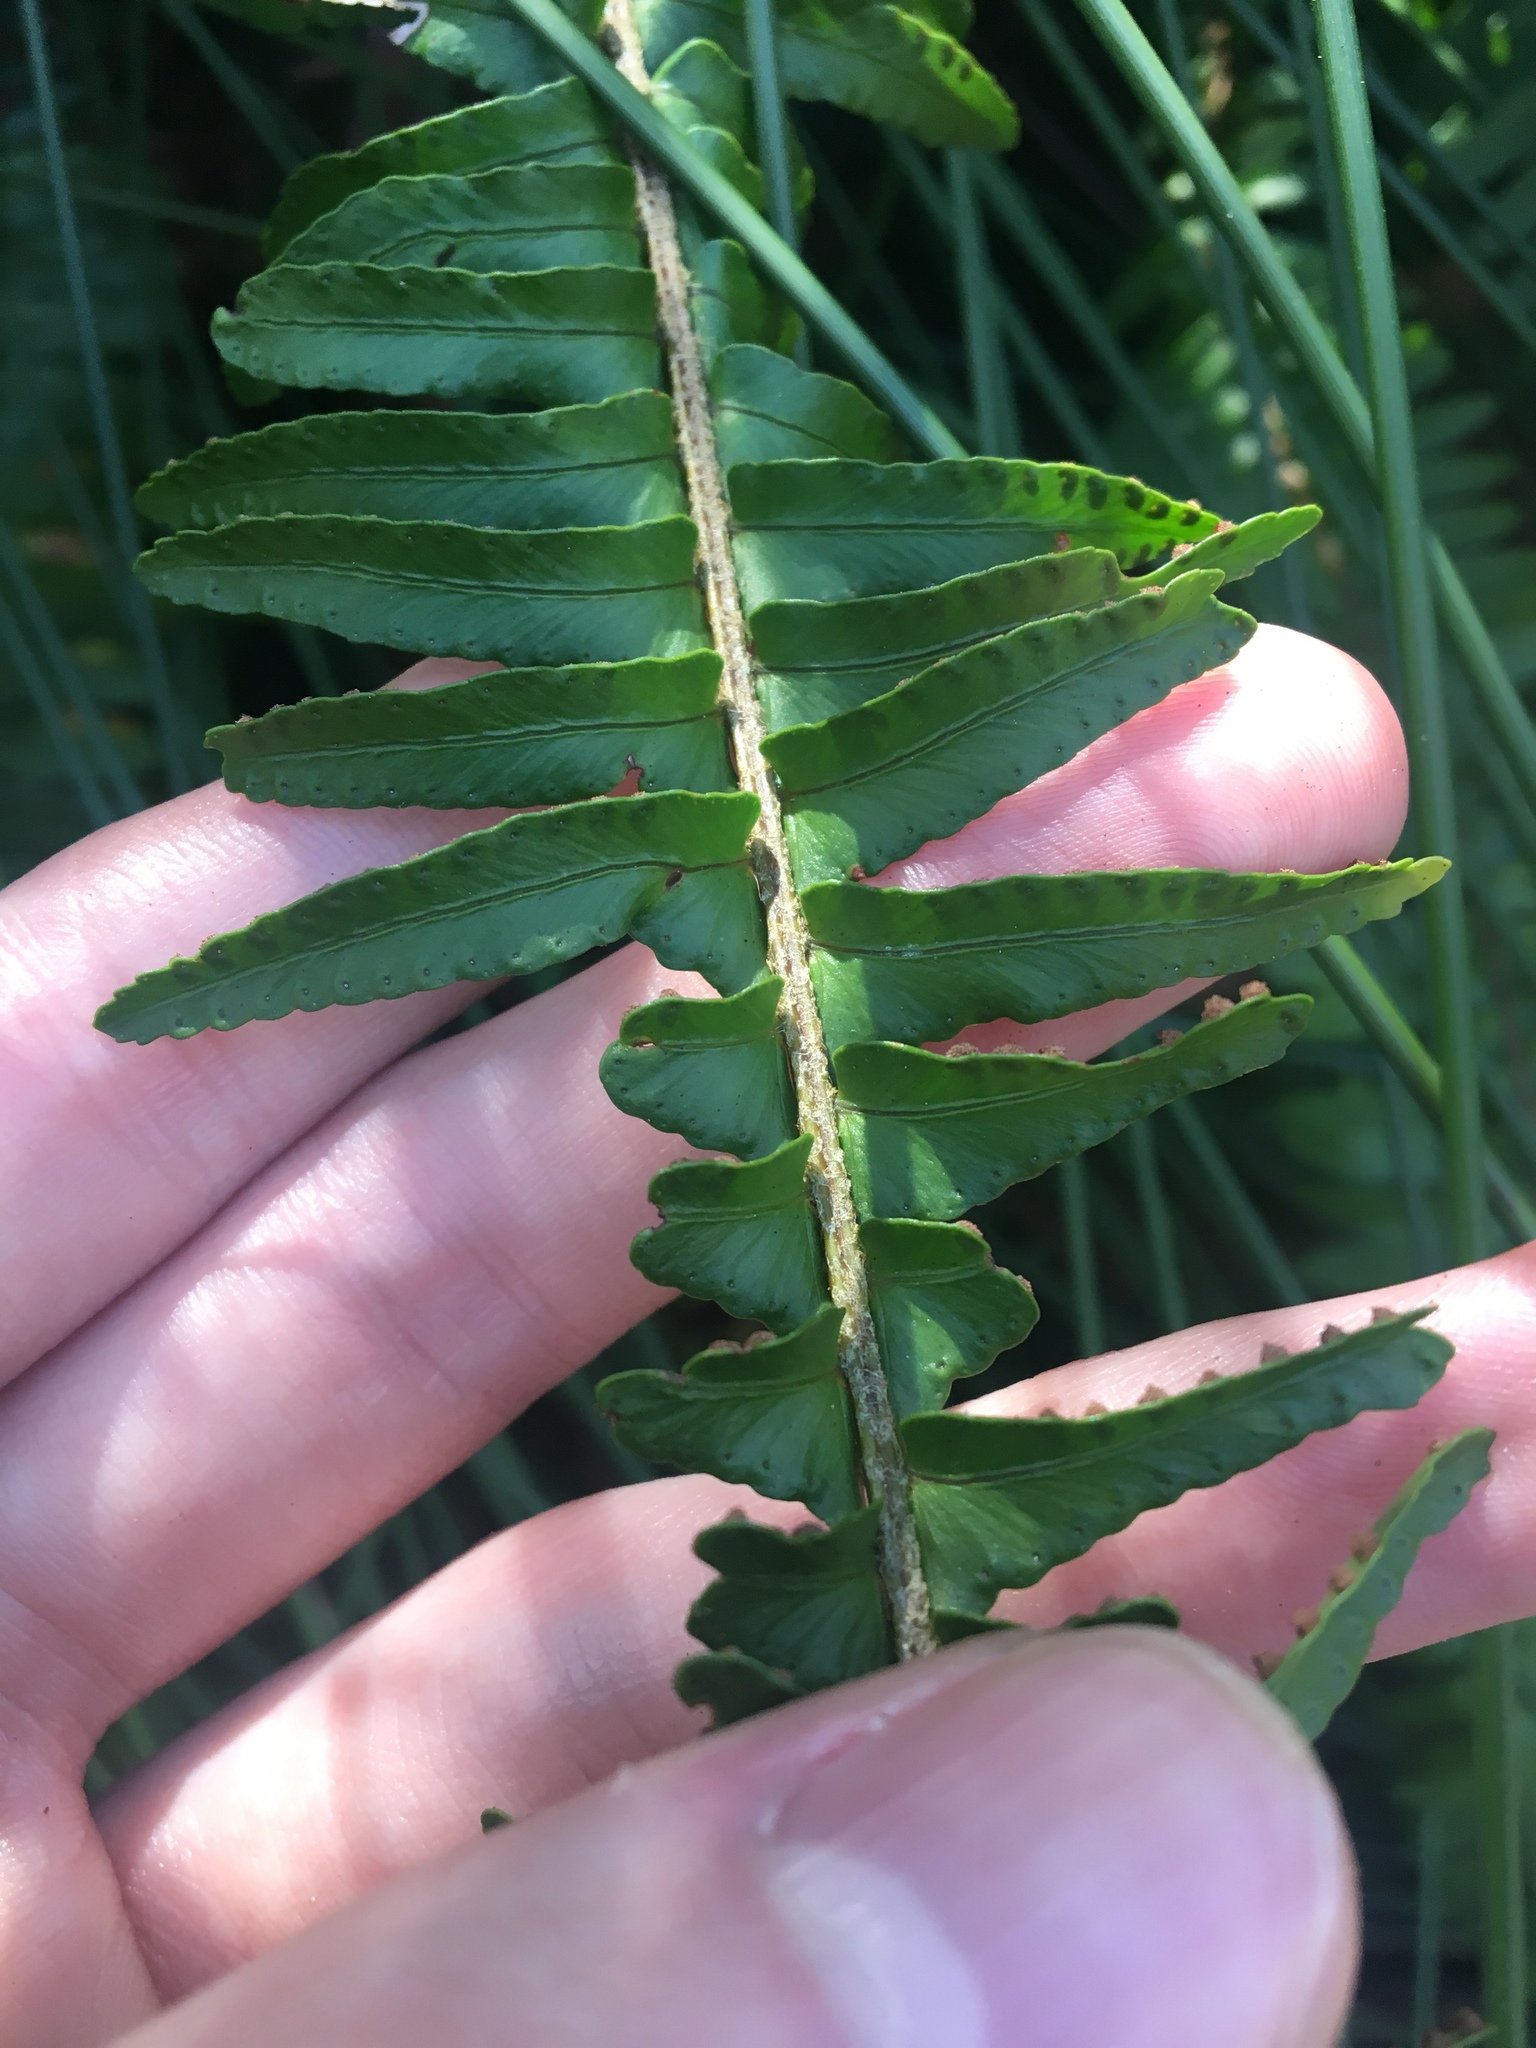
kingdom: Plantae
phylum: Tracheophyta
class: Polypodiopsida
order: Polypodiales
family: Nephrolepidaceae
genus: Nephrolepis
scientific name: Nephrolepis cordifolia
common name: Narrow swordfern
